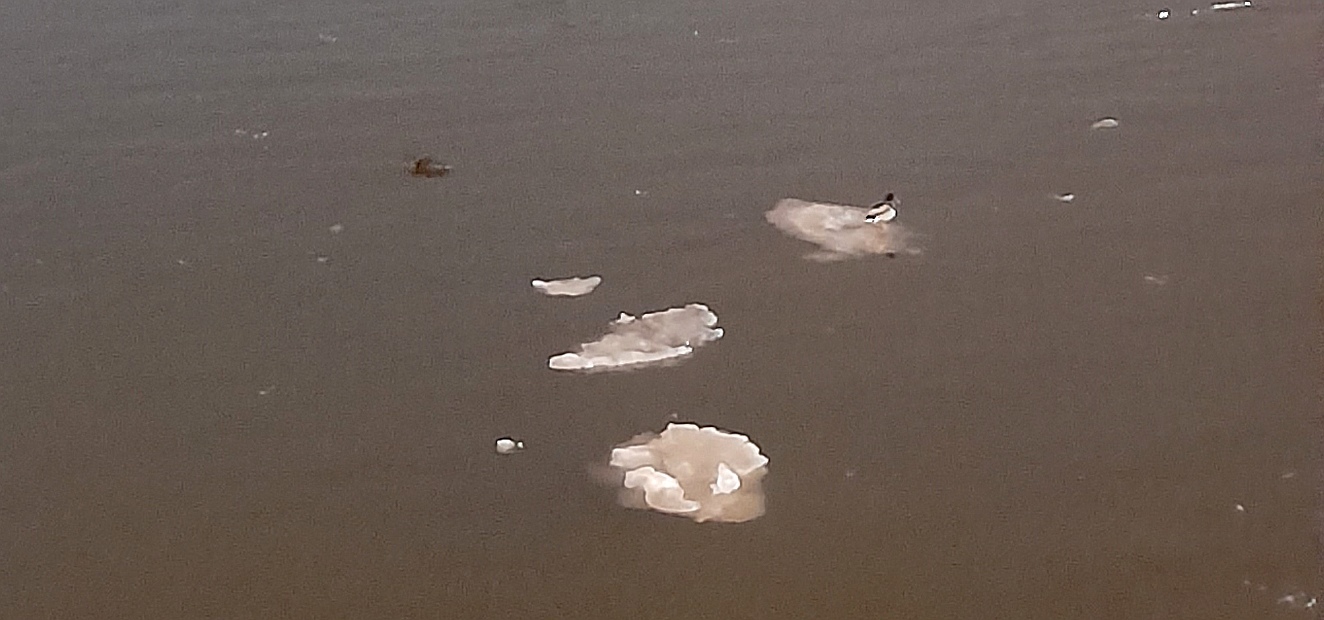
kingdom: Animalia
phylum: Chordata
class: Aves
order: Anseriformes
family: Anatidae
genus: Anas
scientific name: Anas platyrhynchos
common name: Mallard
